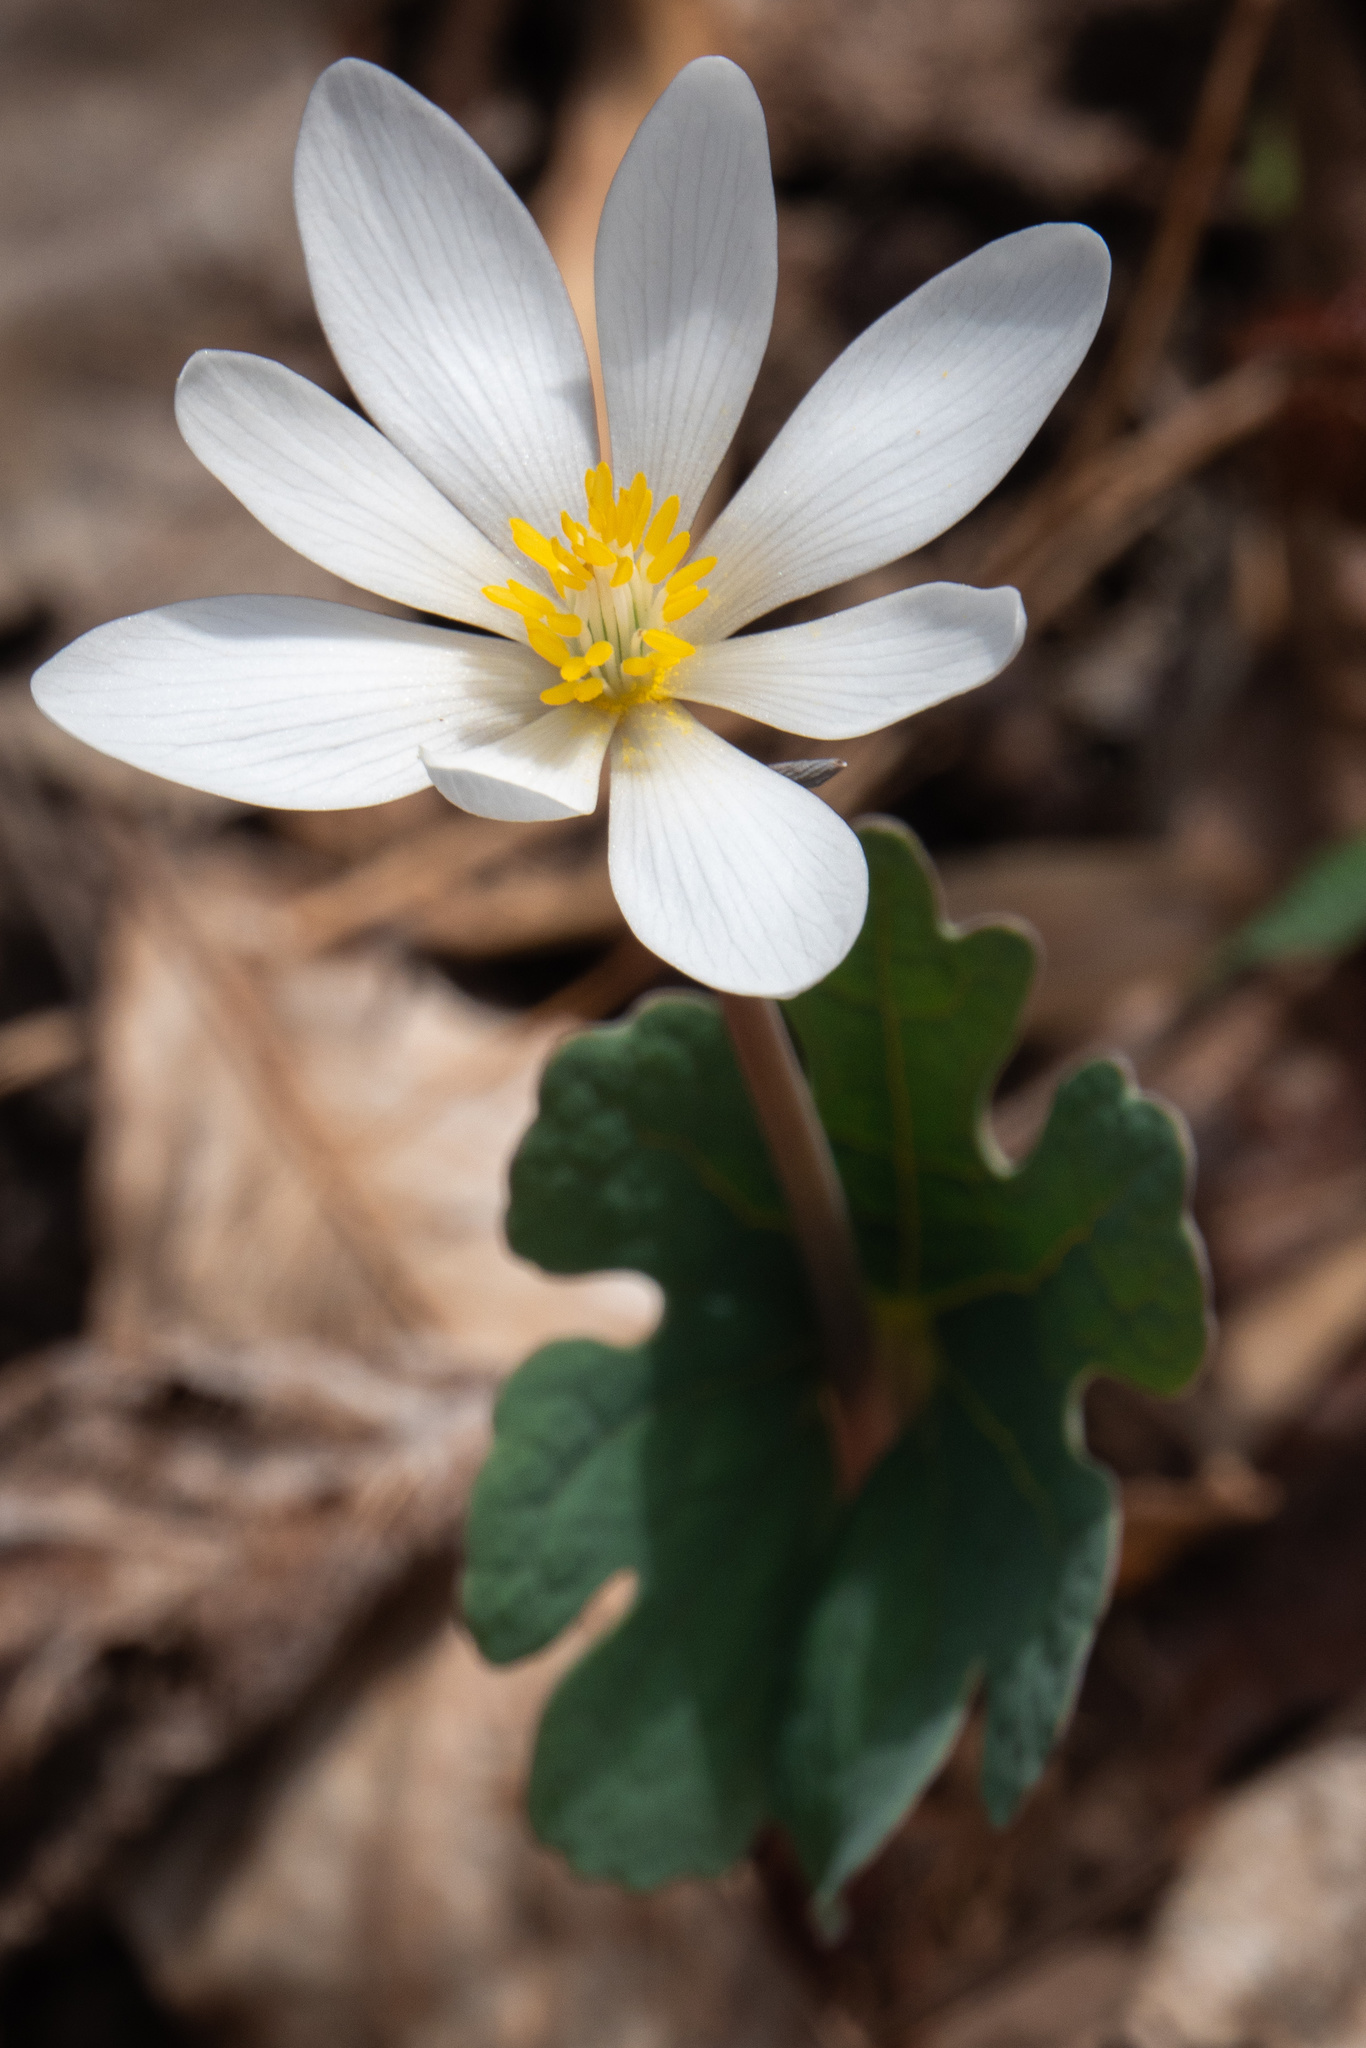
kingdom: Plantae
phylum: Tracheophyta
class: Magnoliopsida
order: Ranunculales
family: Papaveraceae
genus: Sanguinaria
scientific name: Sanguinaria canadensis
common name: Bloodroot
